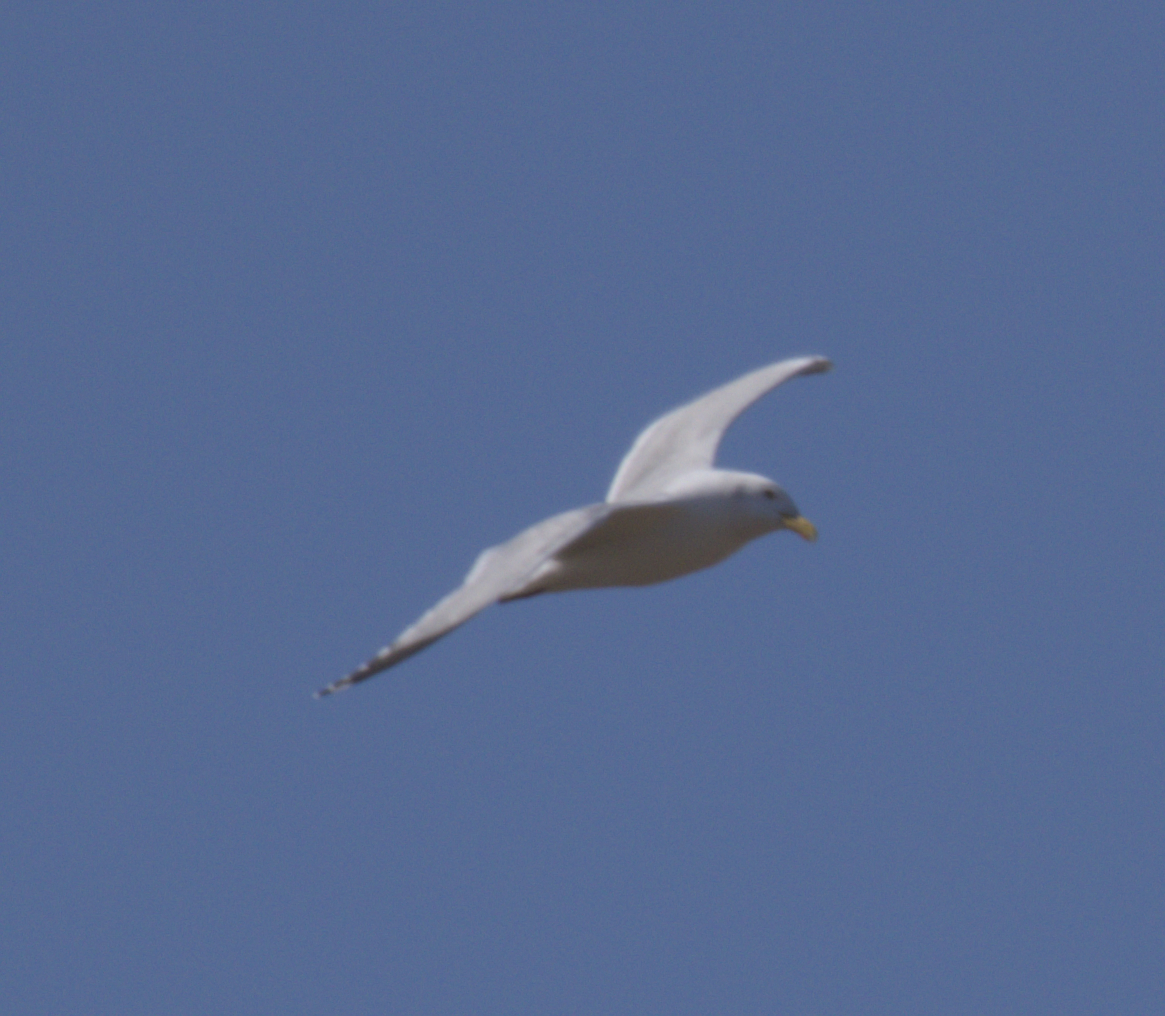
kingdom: Animalia
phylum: Chordata
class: Aves
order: Charadriiformes
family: Laridae
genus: Larus
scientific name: Larus argentatus
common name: Herring gull
